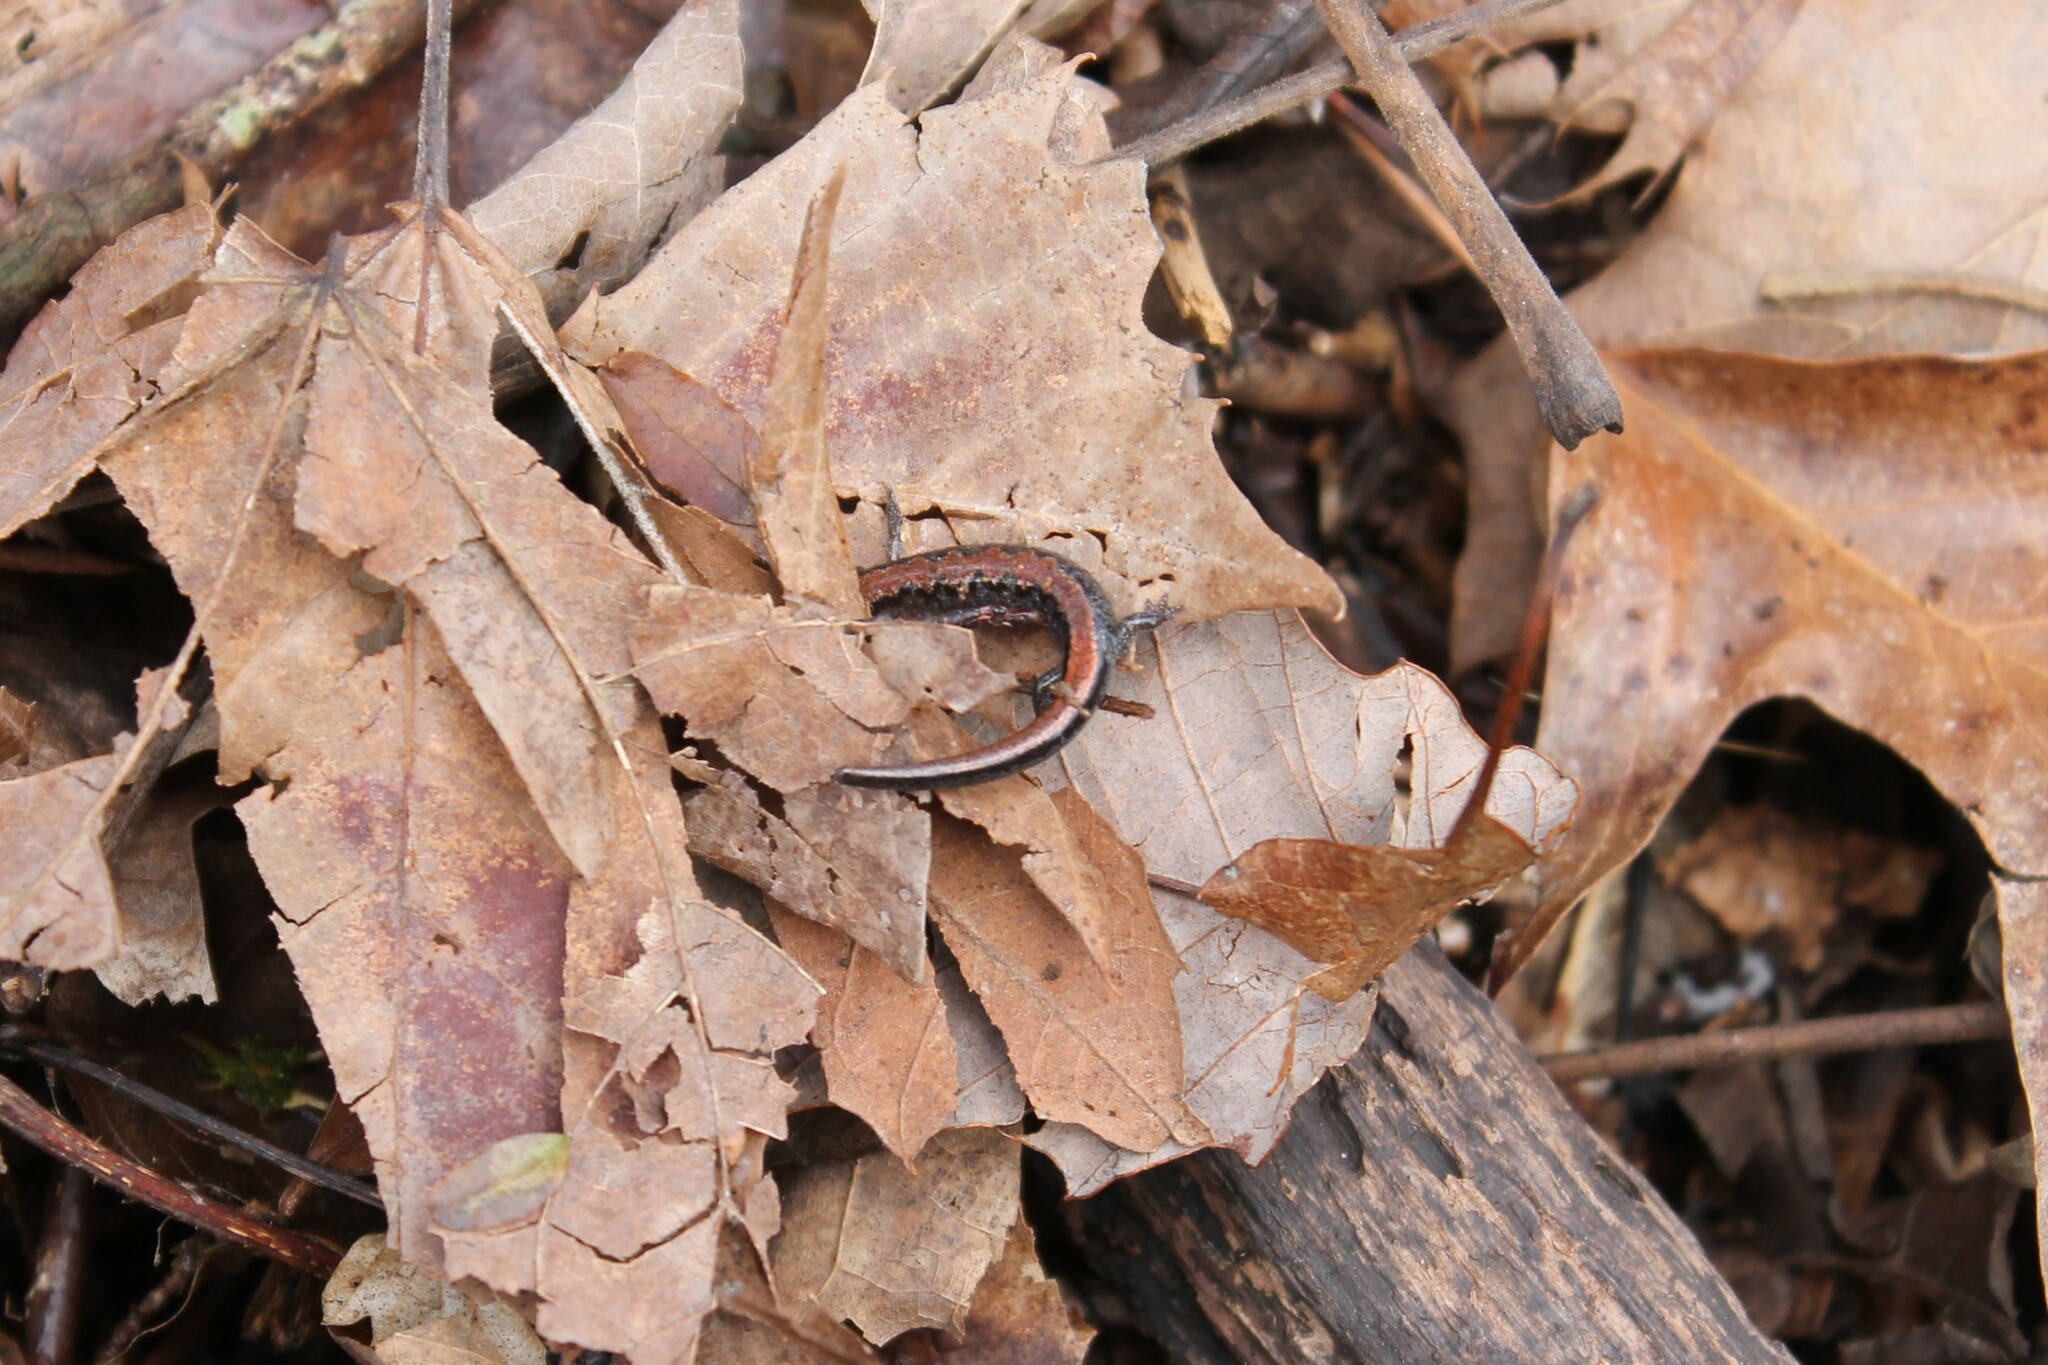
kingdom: Animalia
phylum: Chordata
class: Amphibia
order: Caudata
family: Plethodontidae
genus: Plethodon
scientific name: Plethodon dorsalis
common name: Northern zigzag salamander
